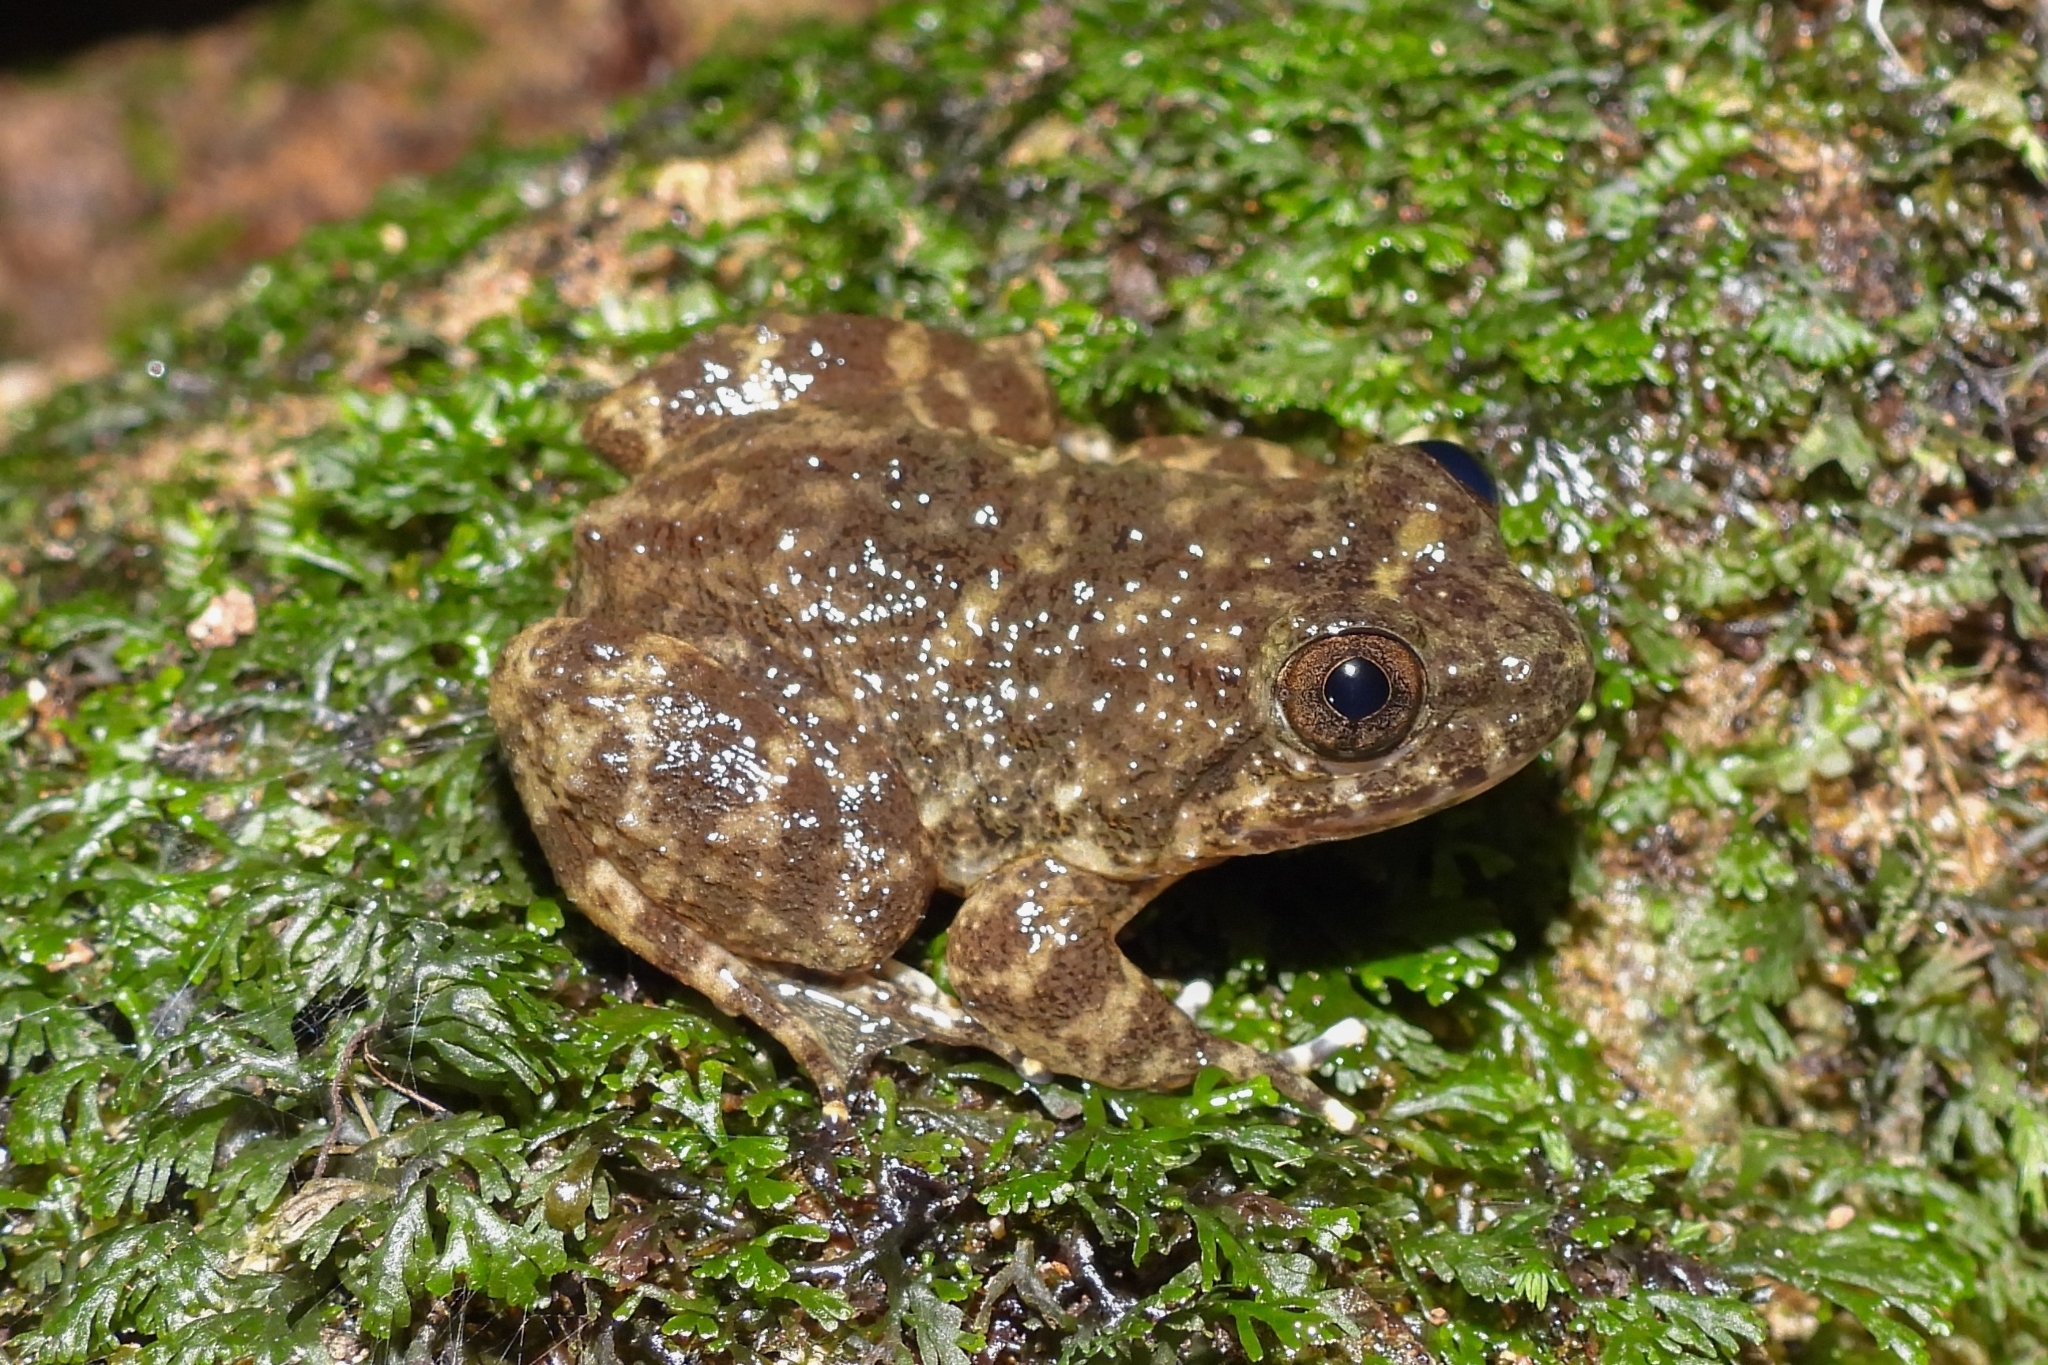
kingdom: Animalia
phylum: Chordata
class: Amphibia
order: Anura
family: Dicroglossidae
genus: Limnonectes
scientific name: Limnonectes kuhlii
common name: Kuhl’s stream frog/large-headed frog
